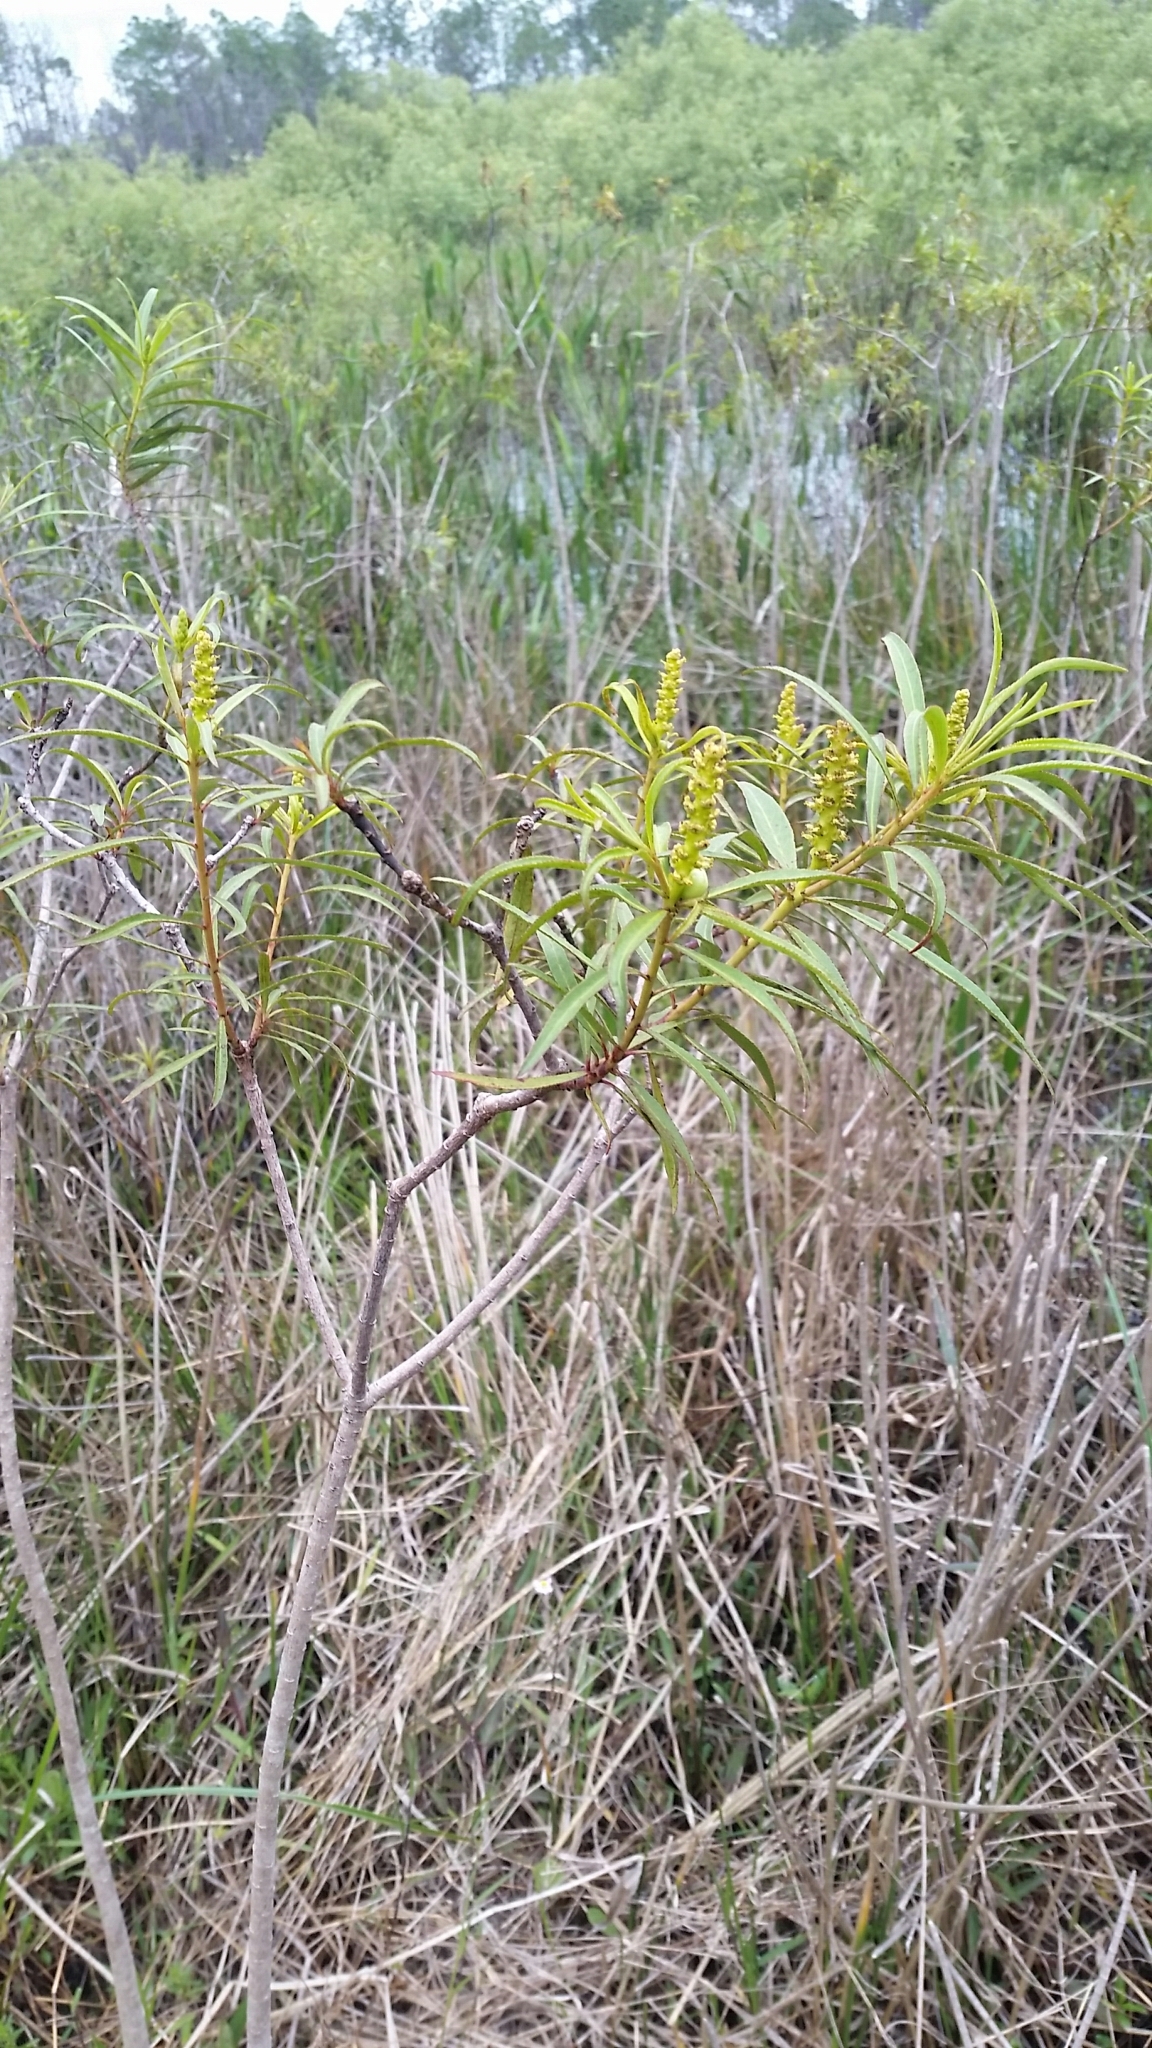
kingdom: Plantae
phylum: Tracheophyta
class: Magnoliopsida
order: Malpighiales
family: Euphorbiaceae
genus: Stillingia
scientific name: Stillingia aquatica
